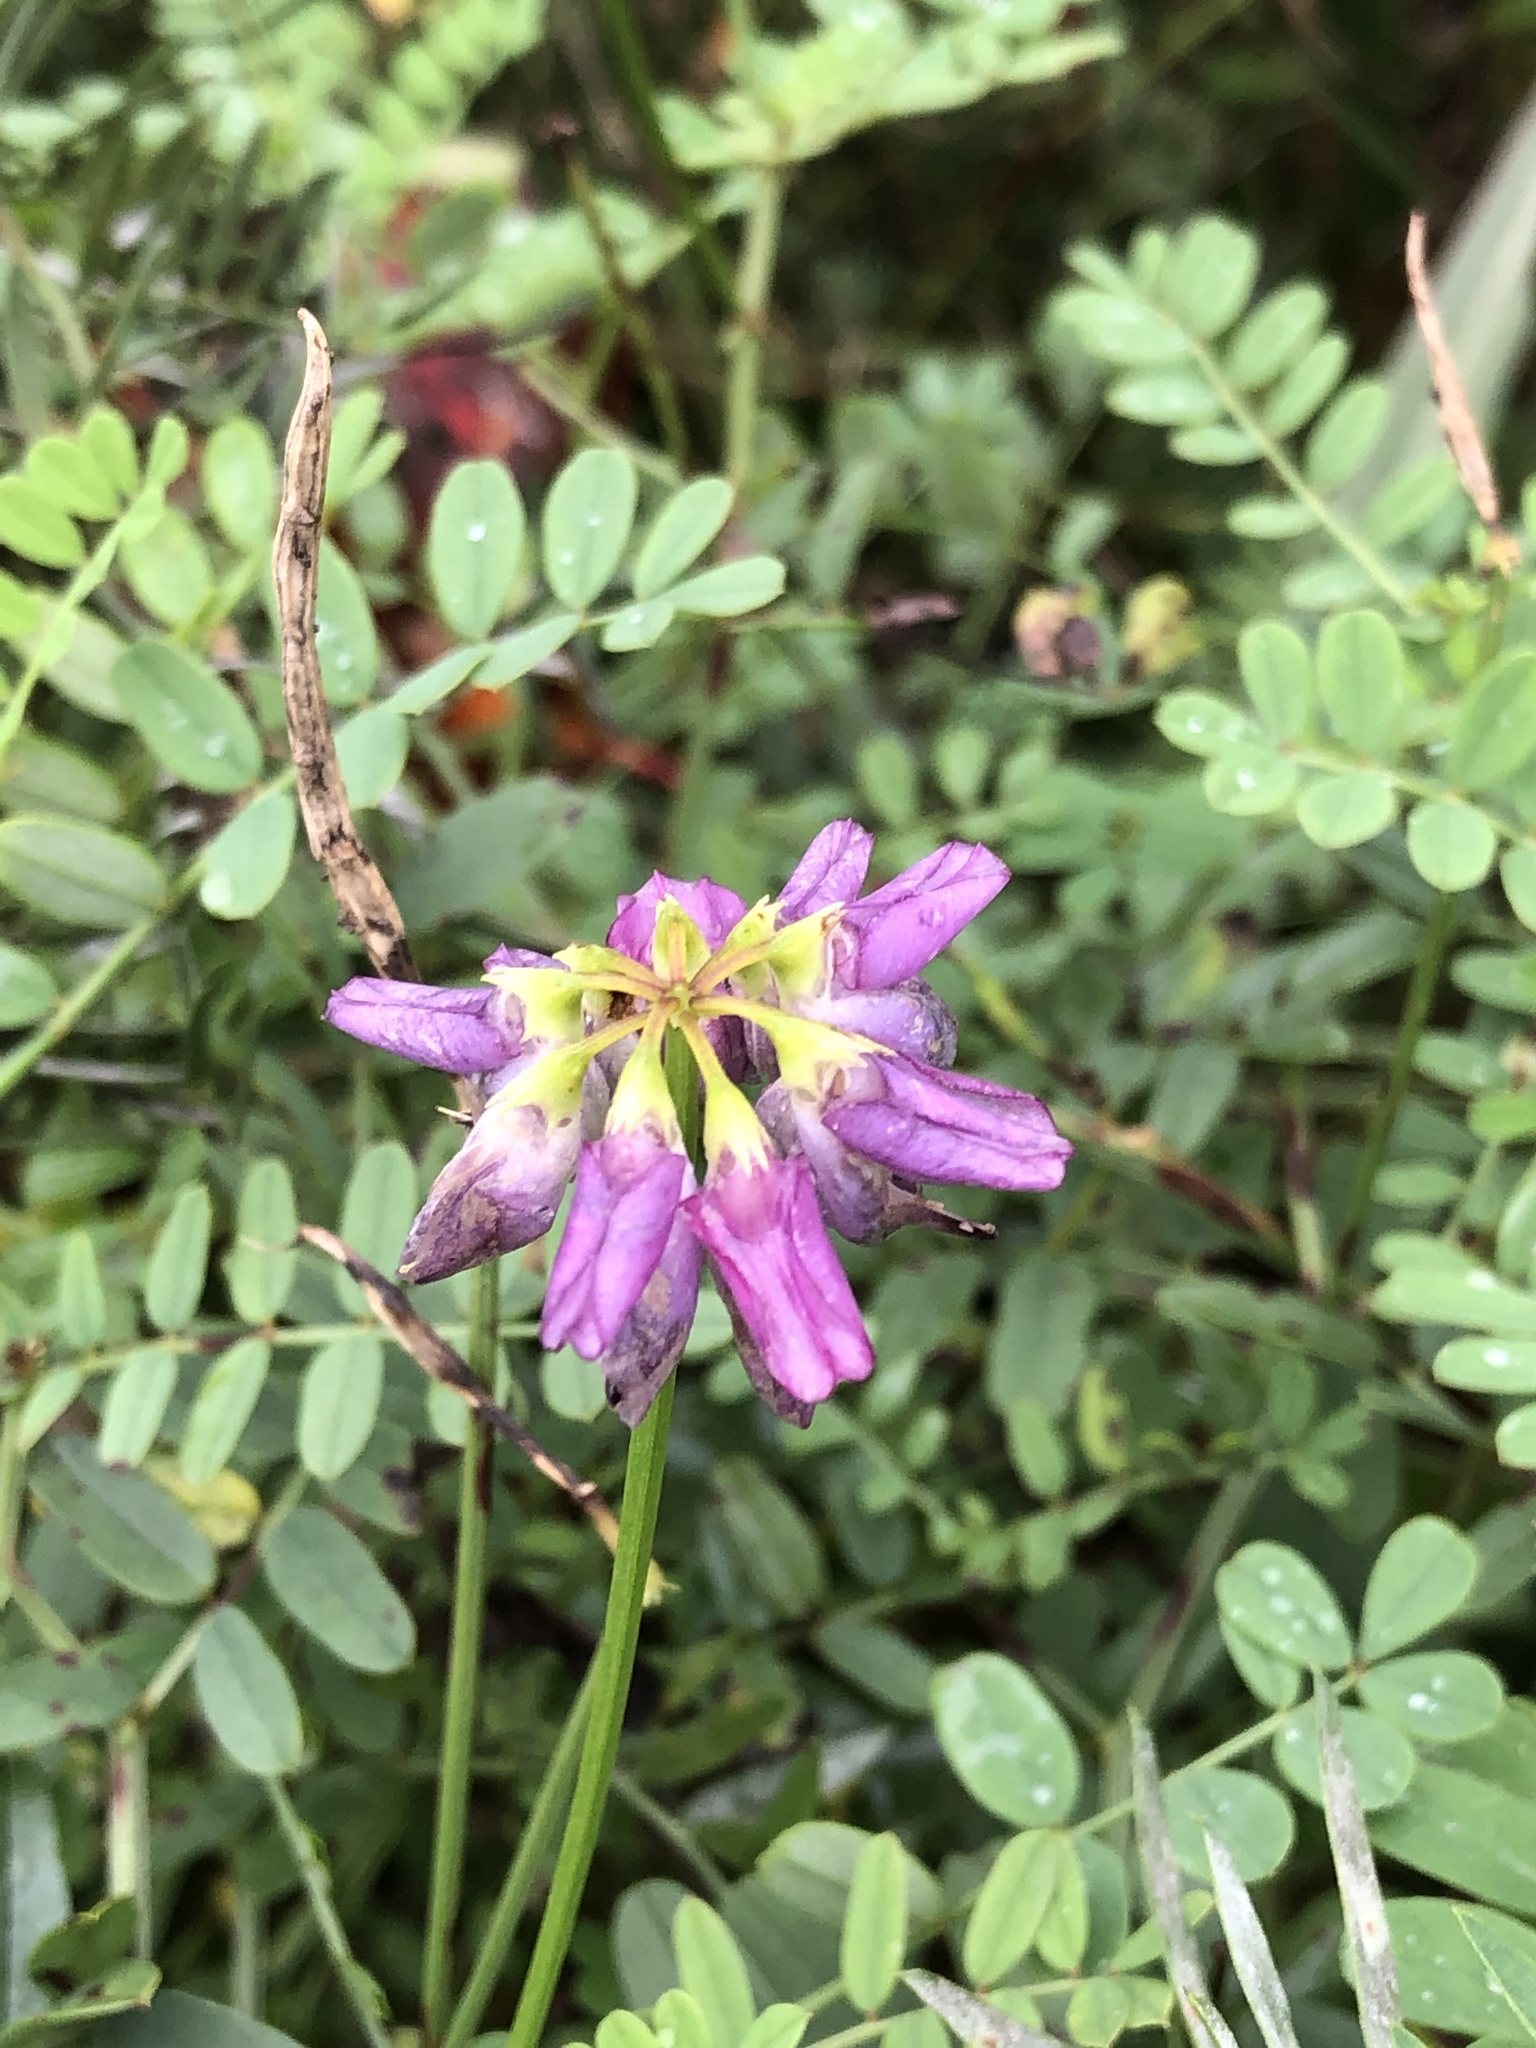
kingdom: Plantae
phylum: Tracheophyta
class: Magnoliopsida
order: Fabales
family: Fabaceae
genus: Coronilla
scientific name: Coronilla varia
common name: Crownvetch
